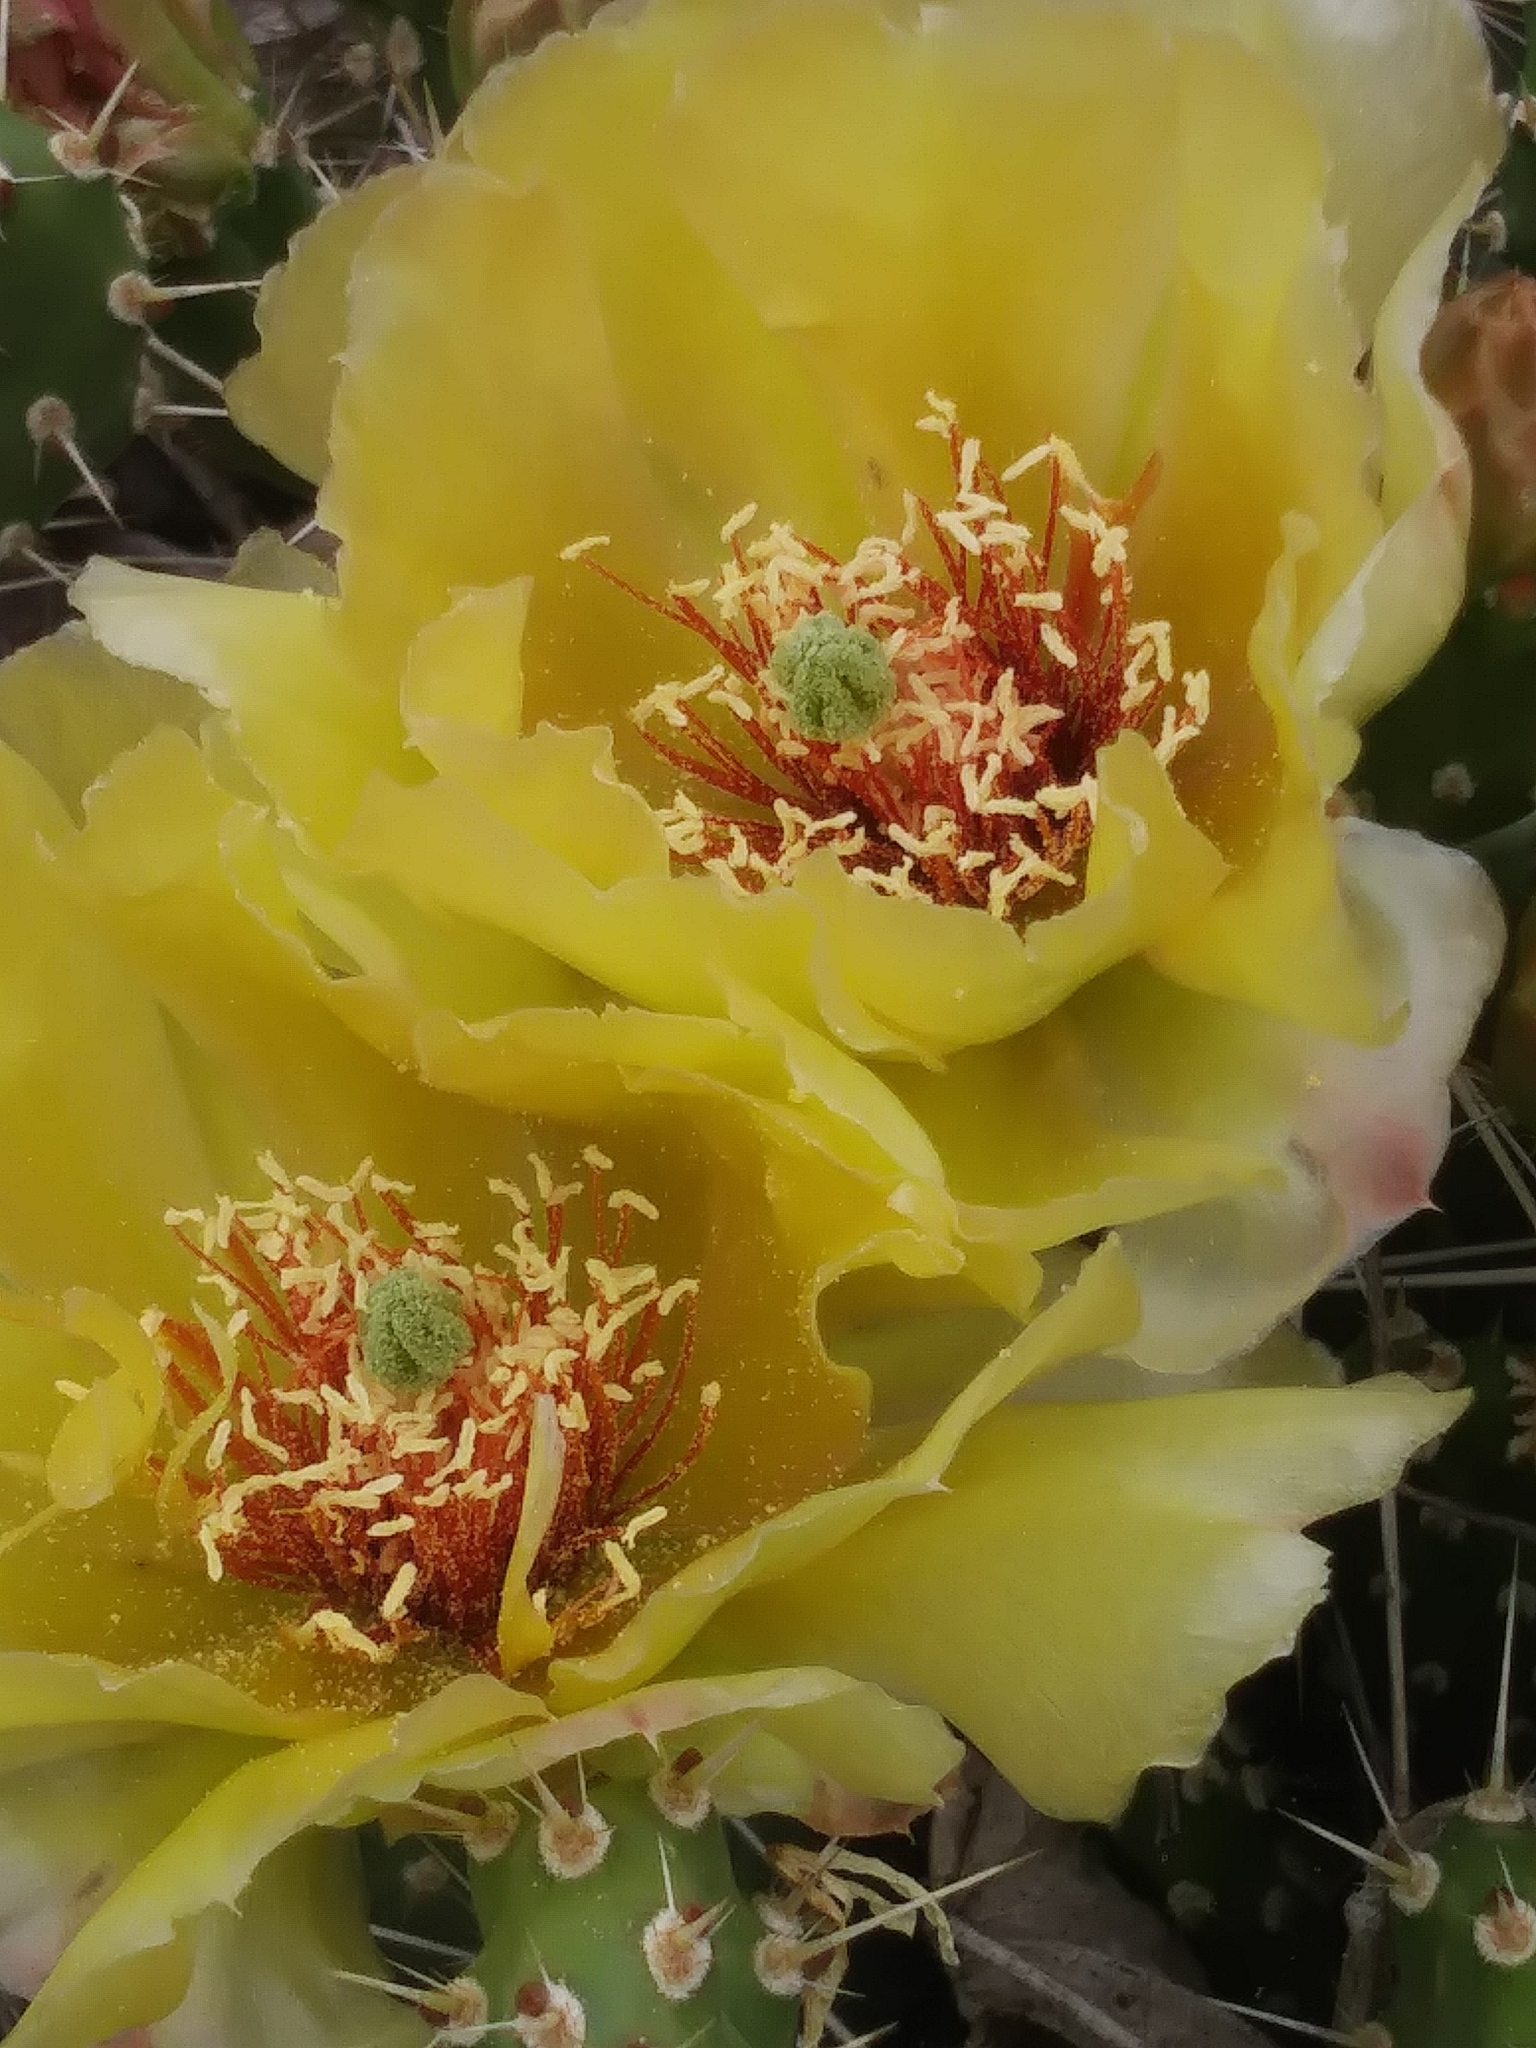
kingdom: Plantae
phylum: Tracheophyta
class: Magnoliopsida
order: Caryophyllales
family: Cactaceae
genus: Opuntia
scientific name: Opuntia columbiana
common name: Columbia prickly-pear
